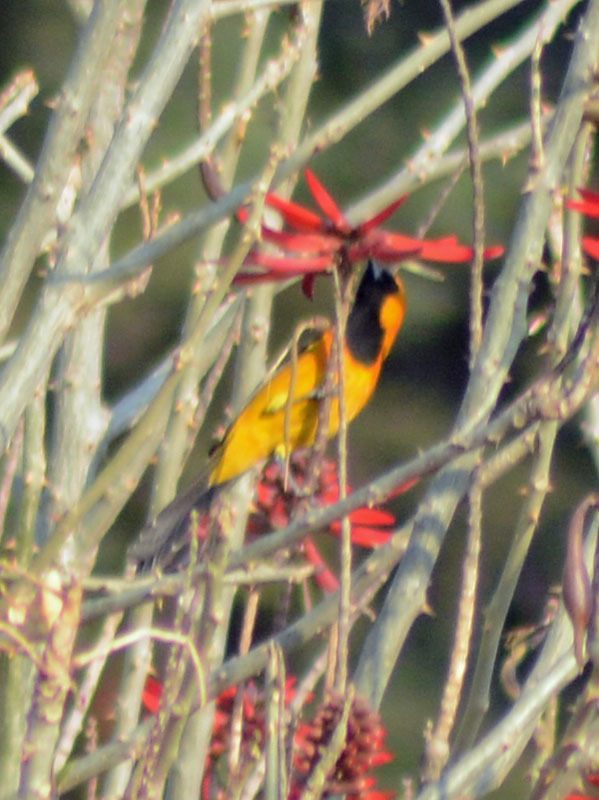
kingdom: Animalia
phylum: Chordata
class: Aves
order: Passeriformes
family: Icteridae
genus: Icterus
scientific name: Icterus cucullatus
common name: Hooded oriole
